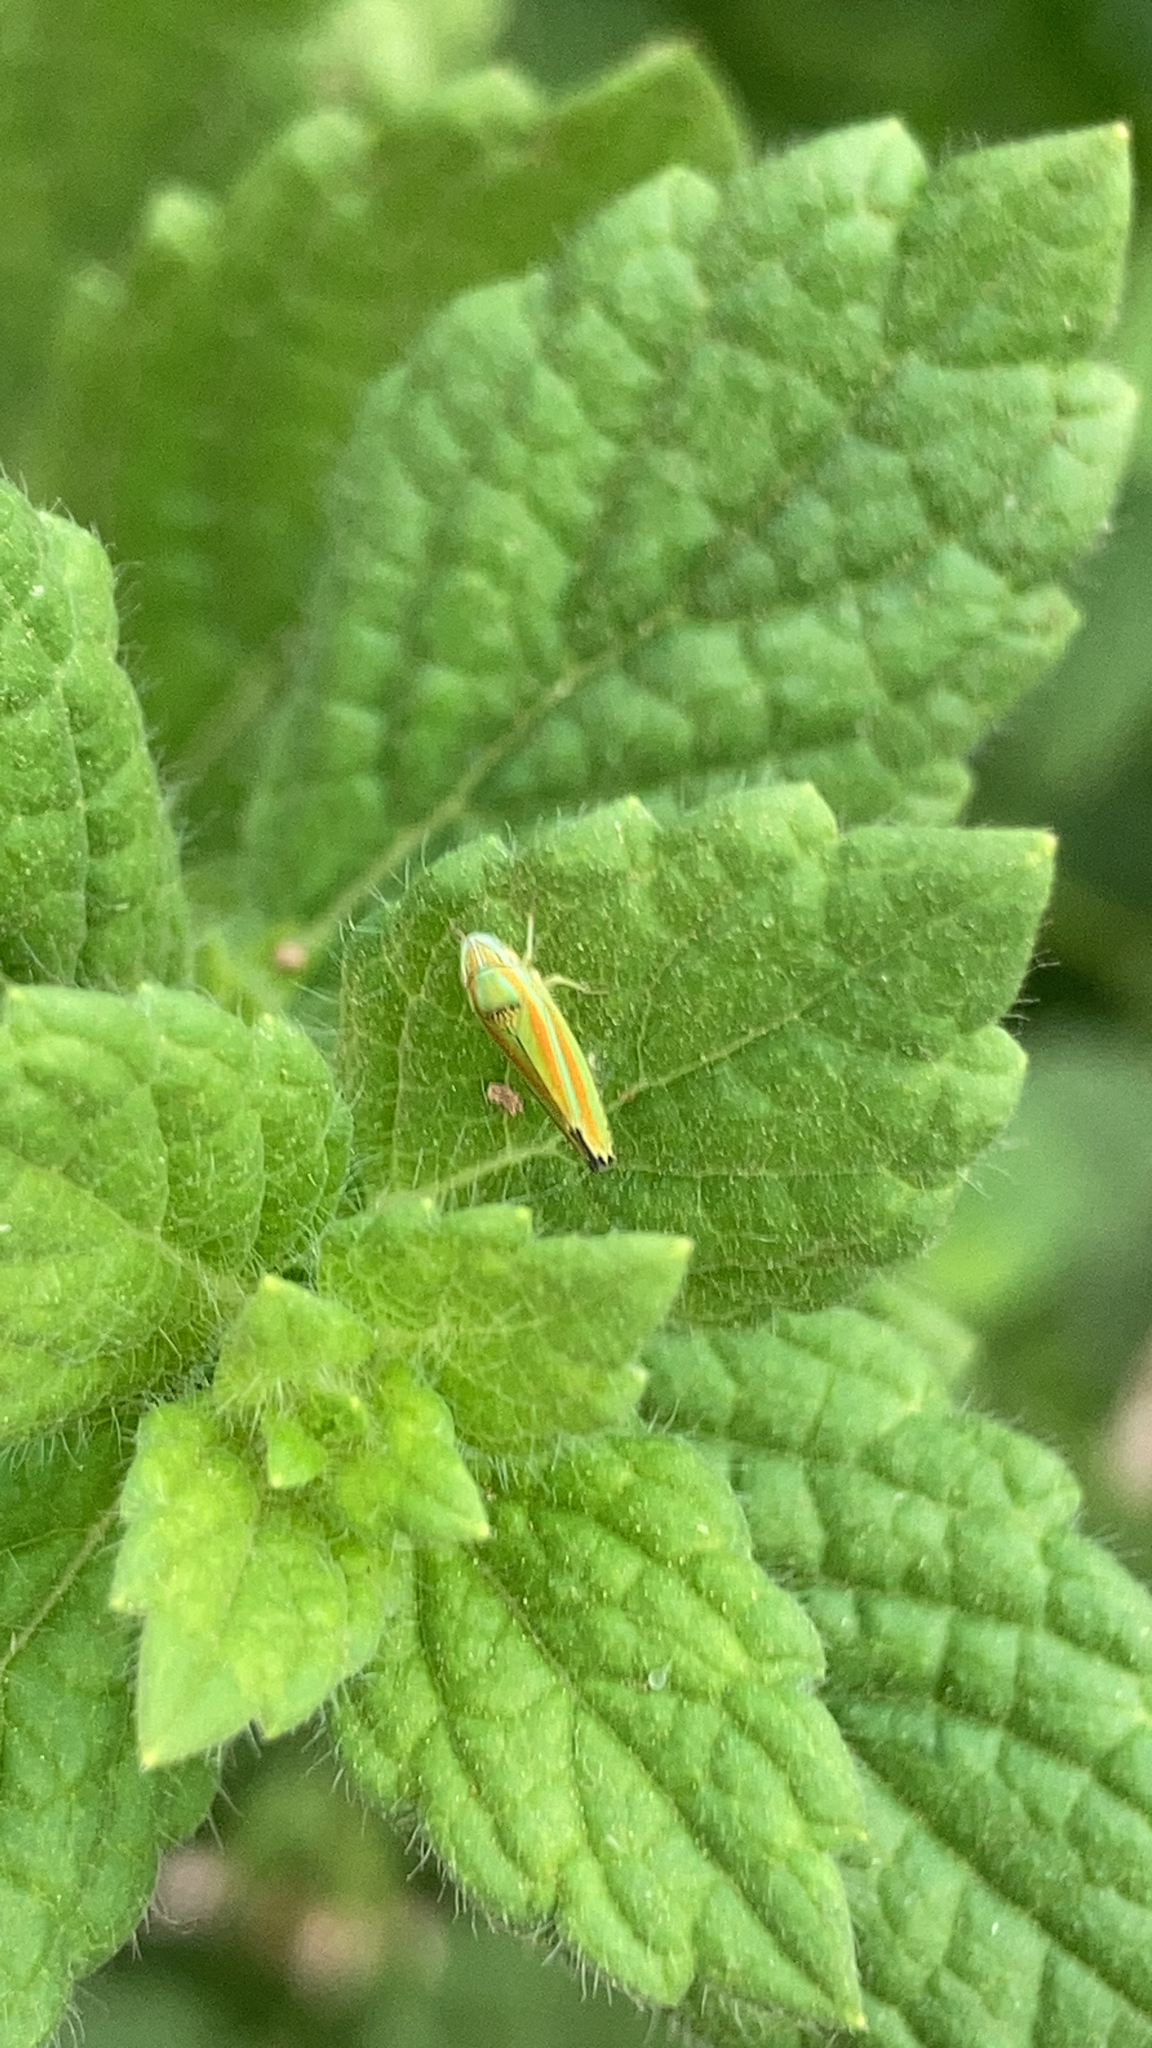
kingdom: Animalia
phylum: Arthropoda
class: Insecta
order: Hemiptera
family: Cicadellidae
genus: Graphocephala
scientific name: Graphocephala versuta
